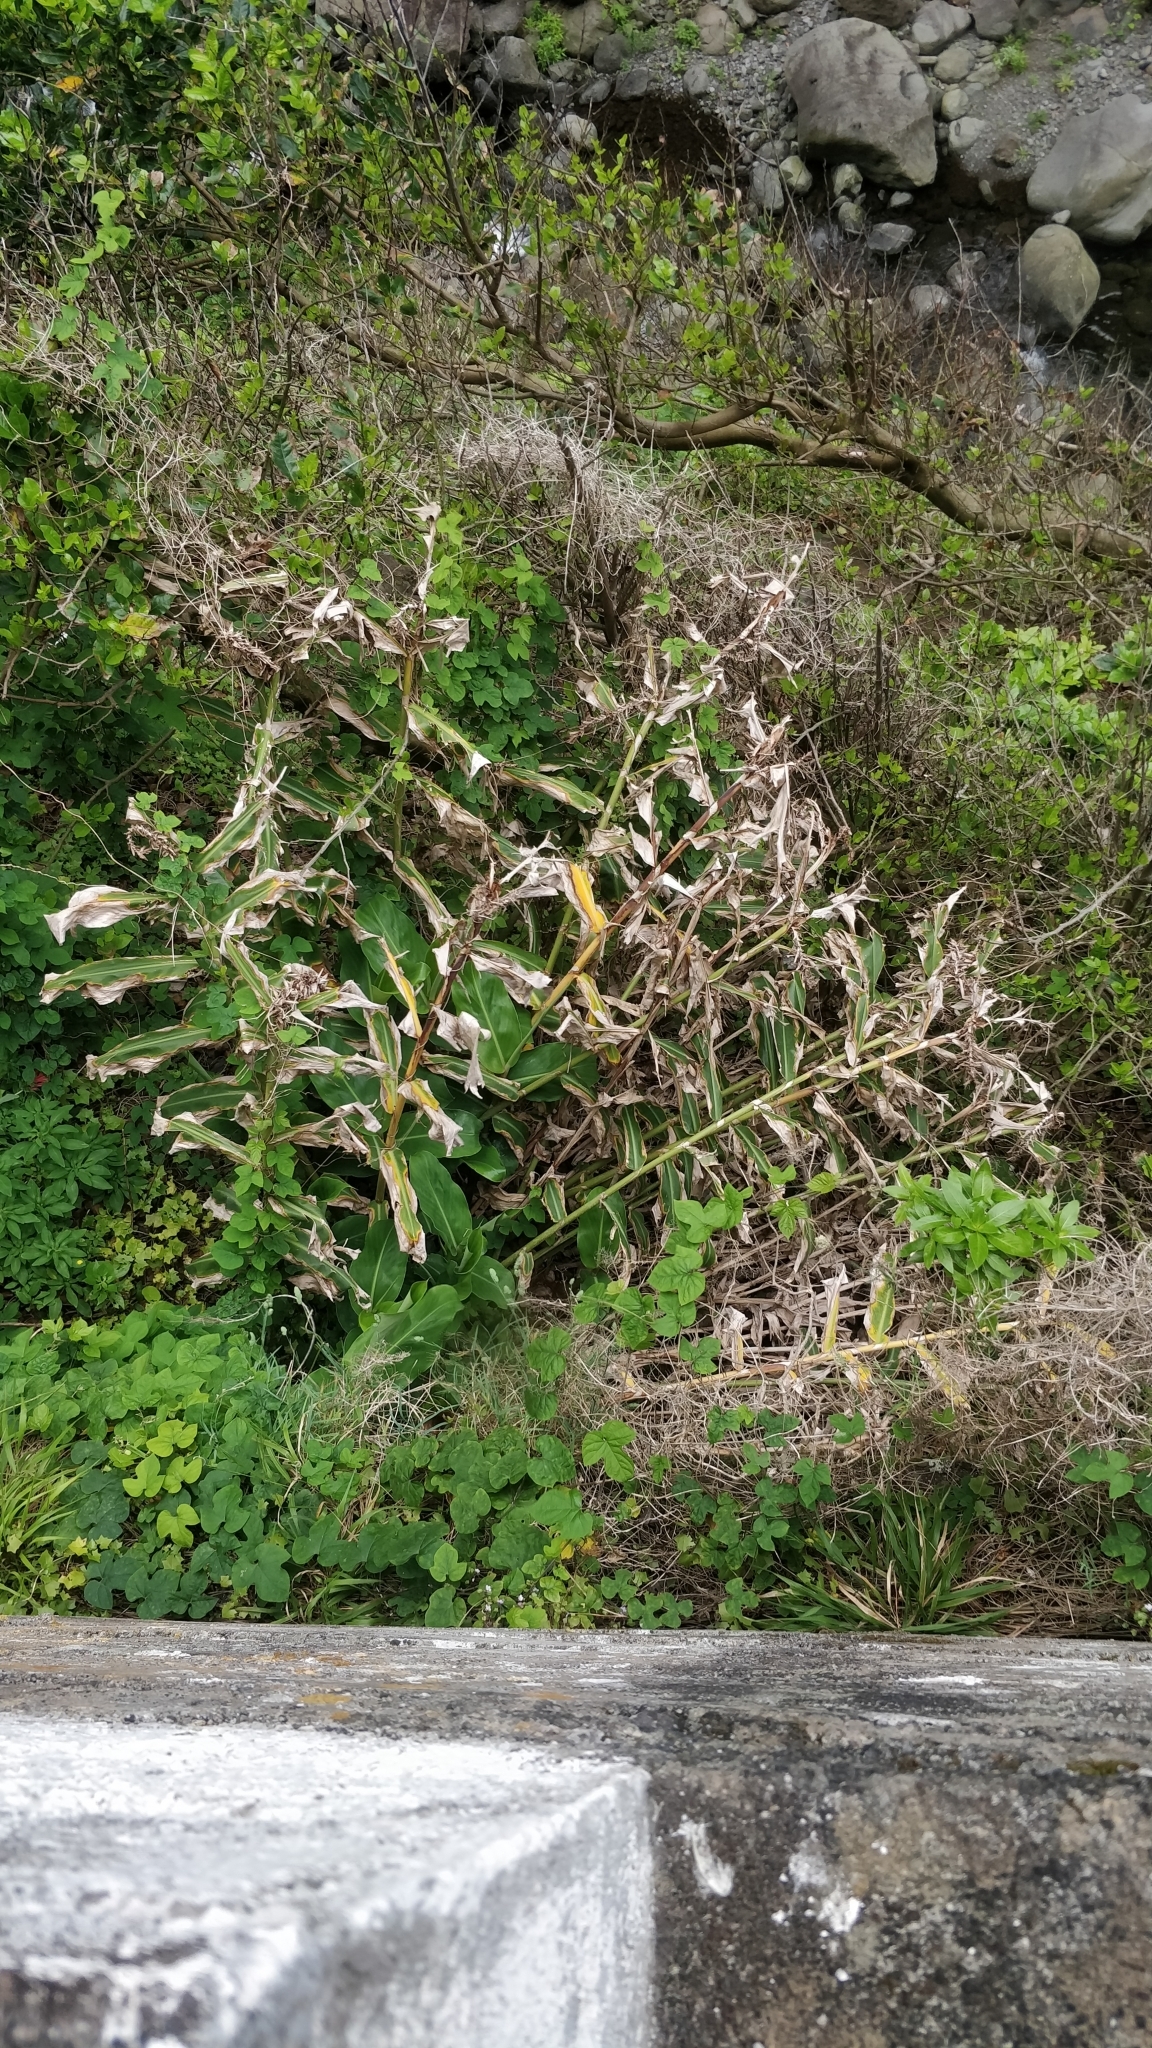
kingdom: Plantae
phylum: Tracheophyta
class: Liliopsida
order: Zingiberales
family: Zingiberaceae
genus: Hedychium
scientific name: Hedychium gardnerianum
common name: Himalayan ginger
